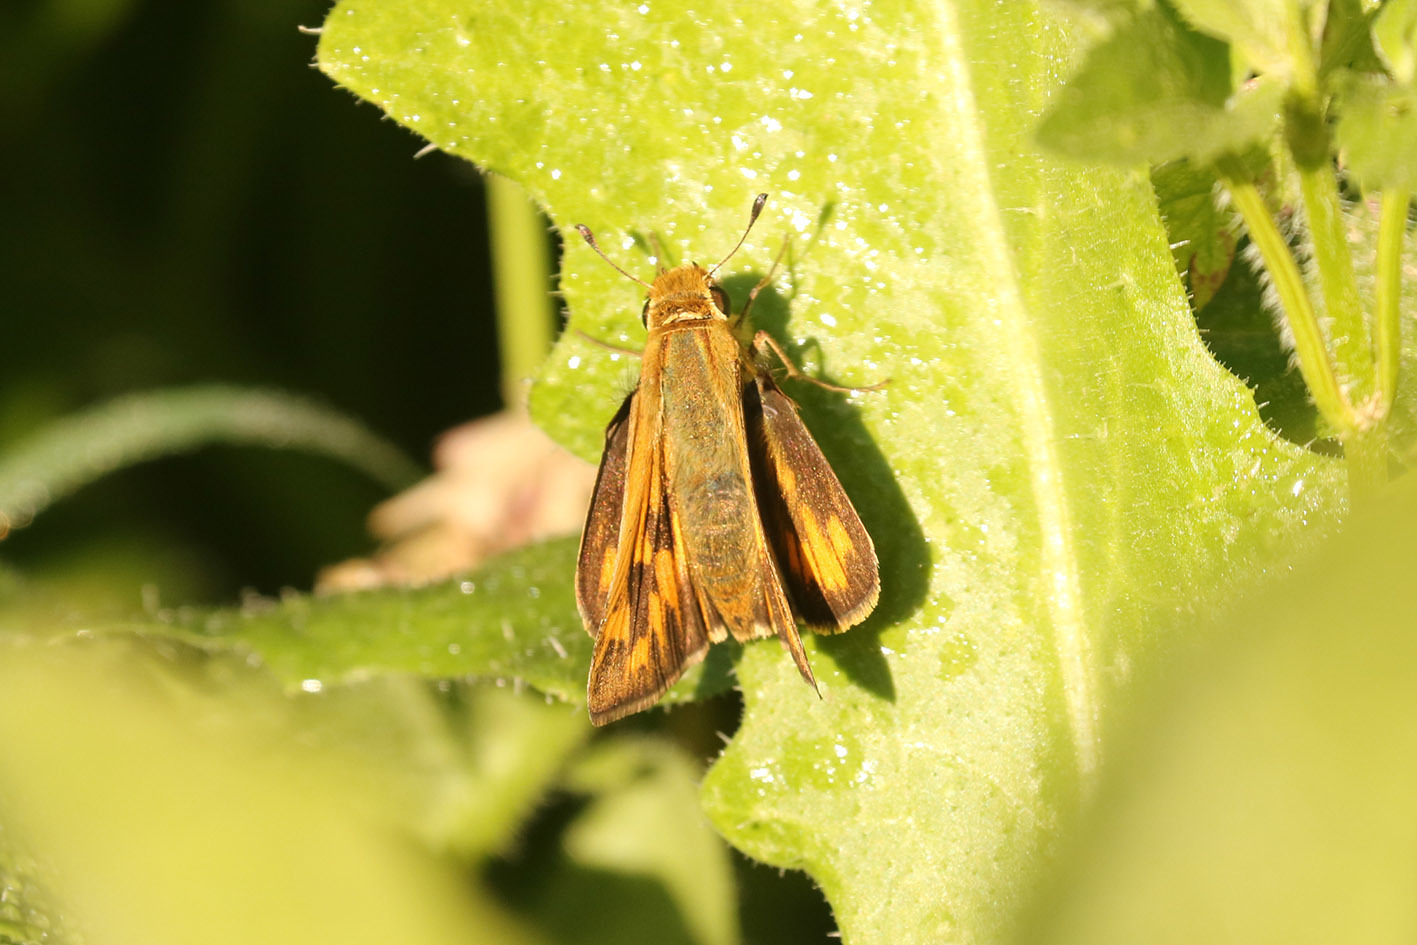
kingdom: Animalia
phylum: Arthropoda
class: Insecta
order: Lepidoptera
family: Hesperiidae
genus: Hylephila
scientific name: Hylephila phyleus
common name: Fiery skipper
